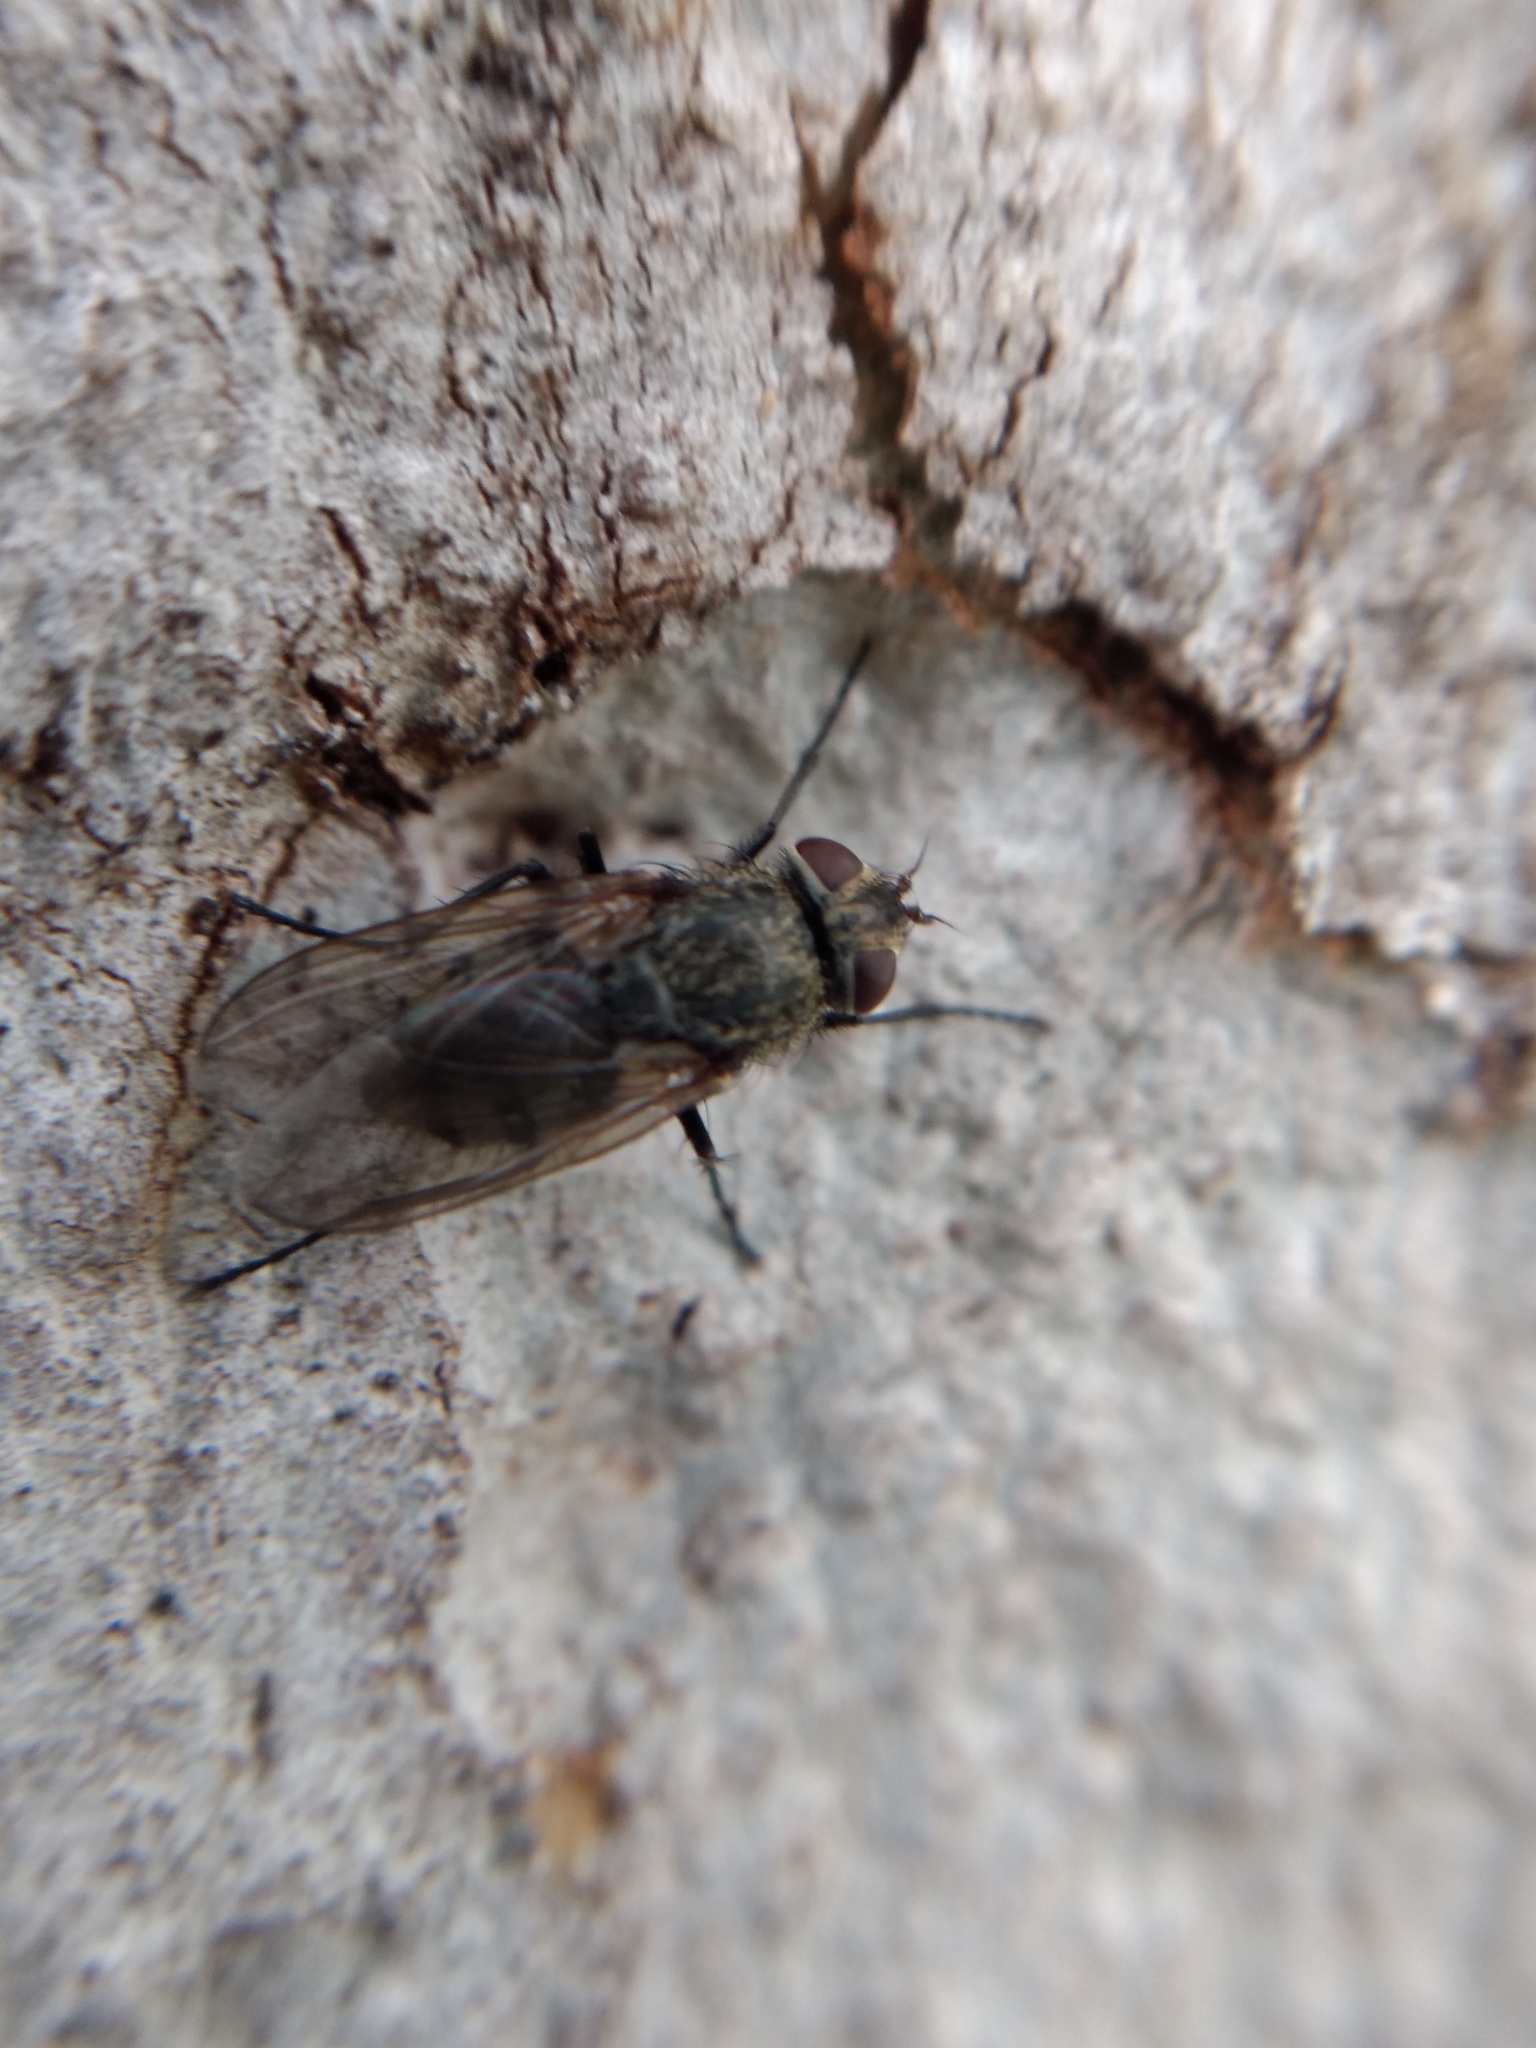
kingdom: Animalia
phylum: Arthropoda
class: Insecta
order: Diptera
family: Polleniidae
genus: Pollenia
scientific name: Pollenia
